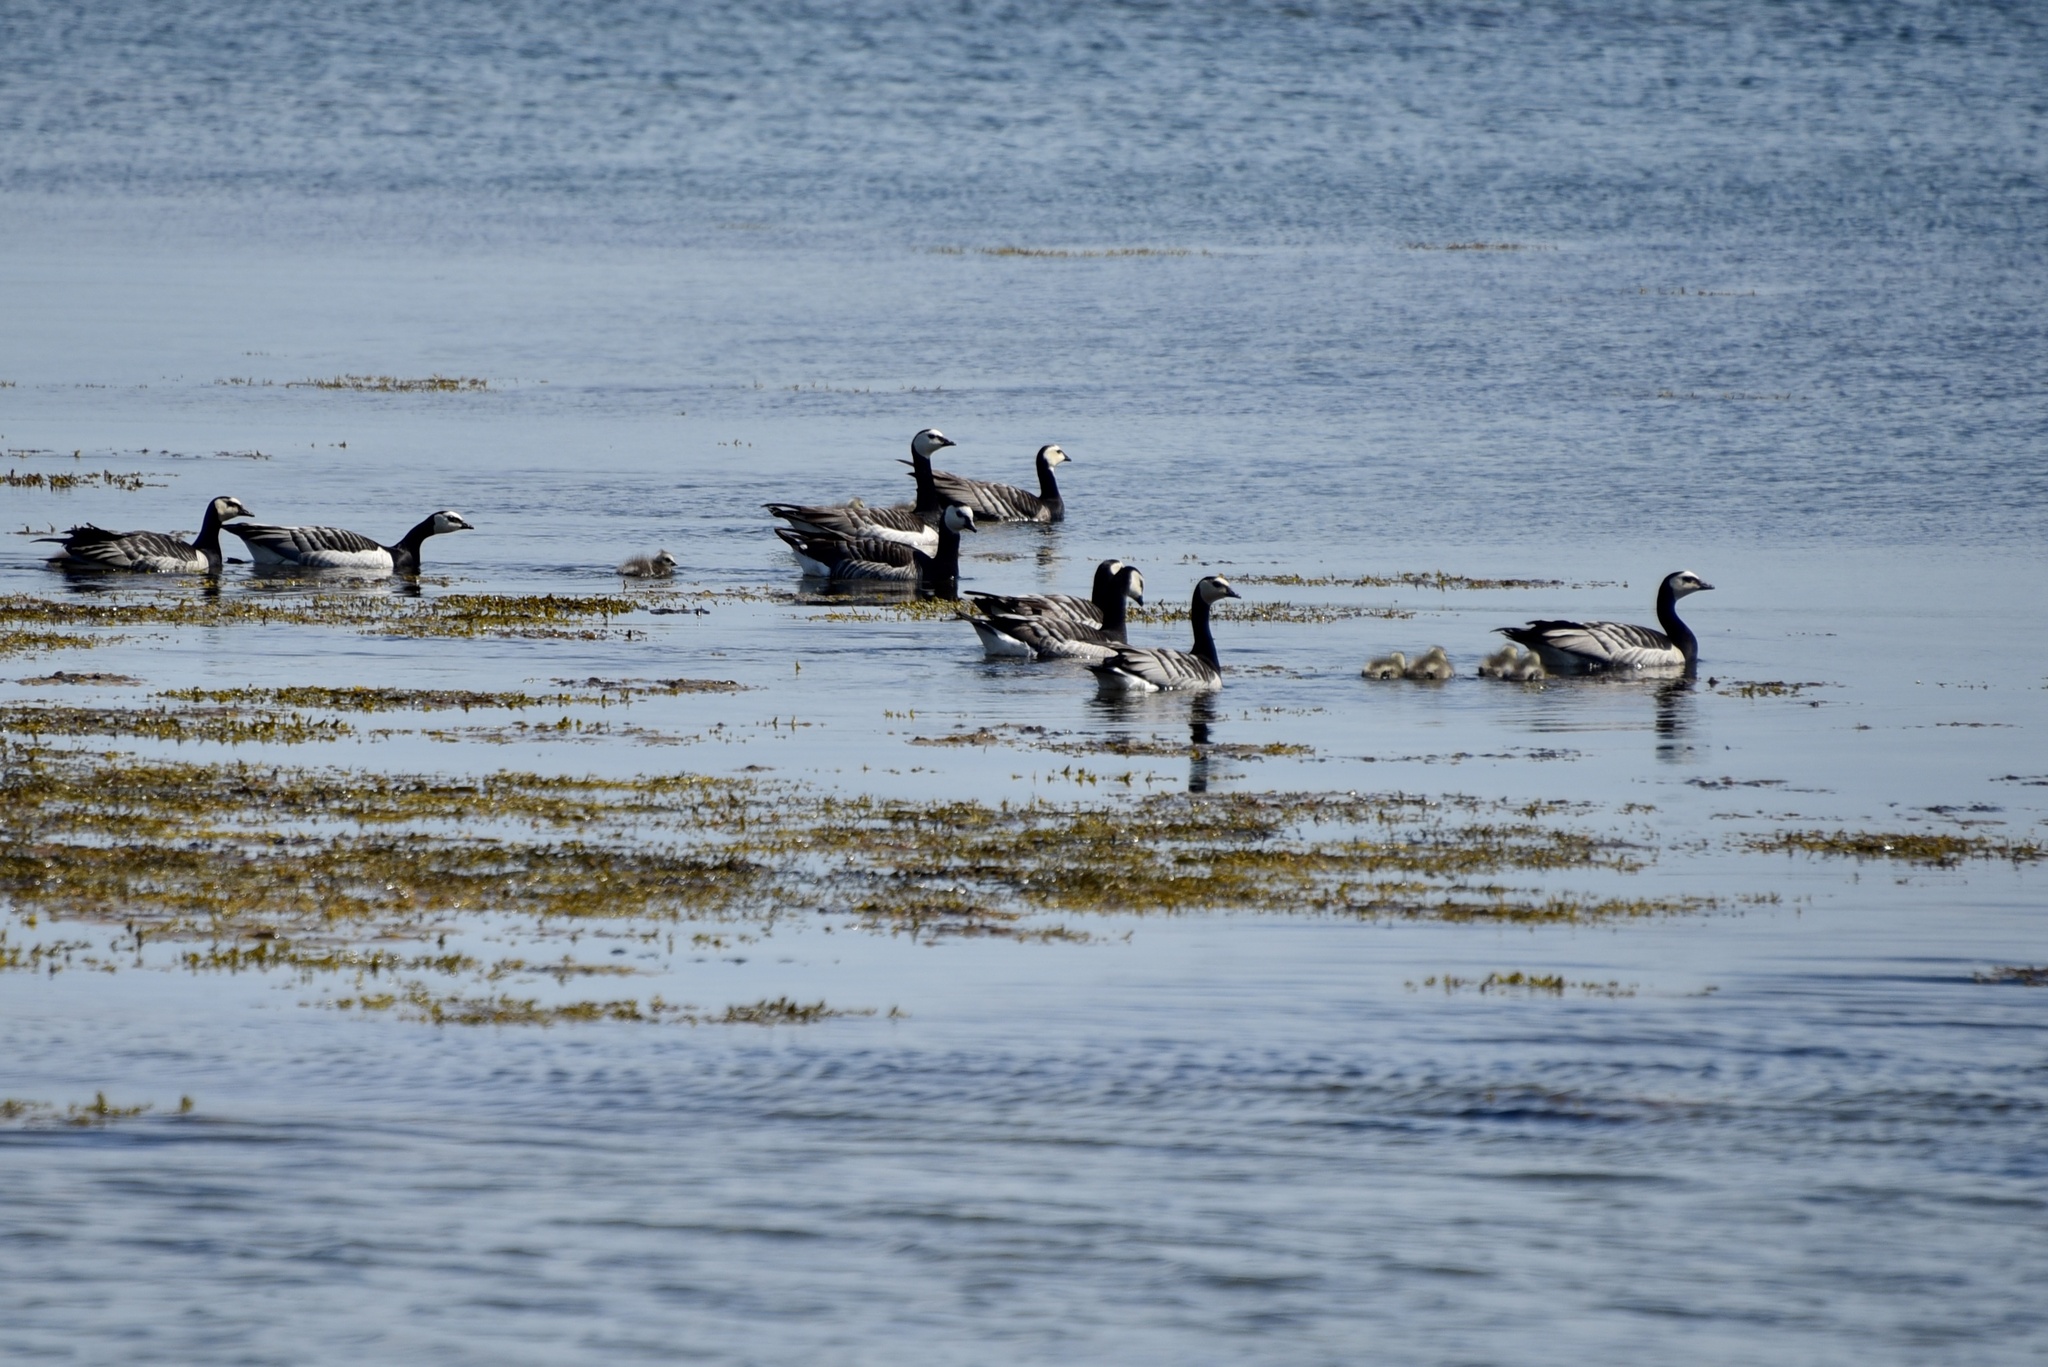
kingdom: Animalia
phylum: Chordata
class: Aves
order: Anseriformes
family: Anatidae
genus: Branta
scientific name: Branta leucopsis
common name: Barnacle goose
